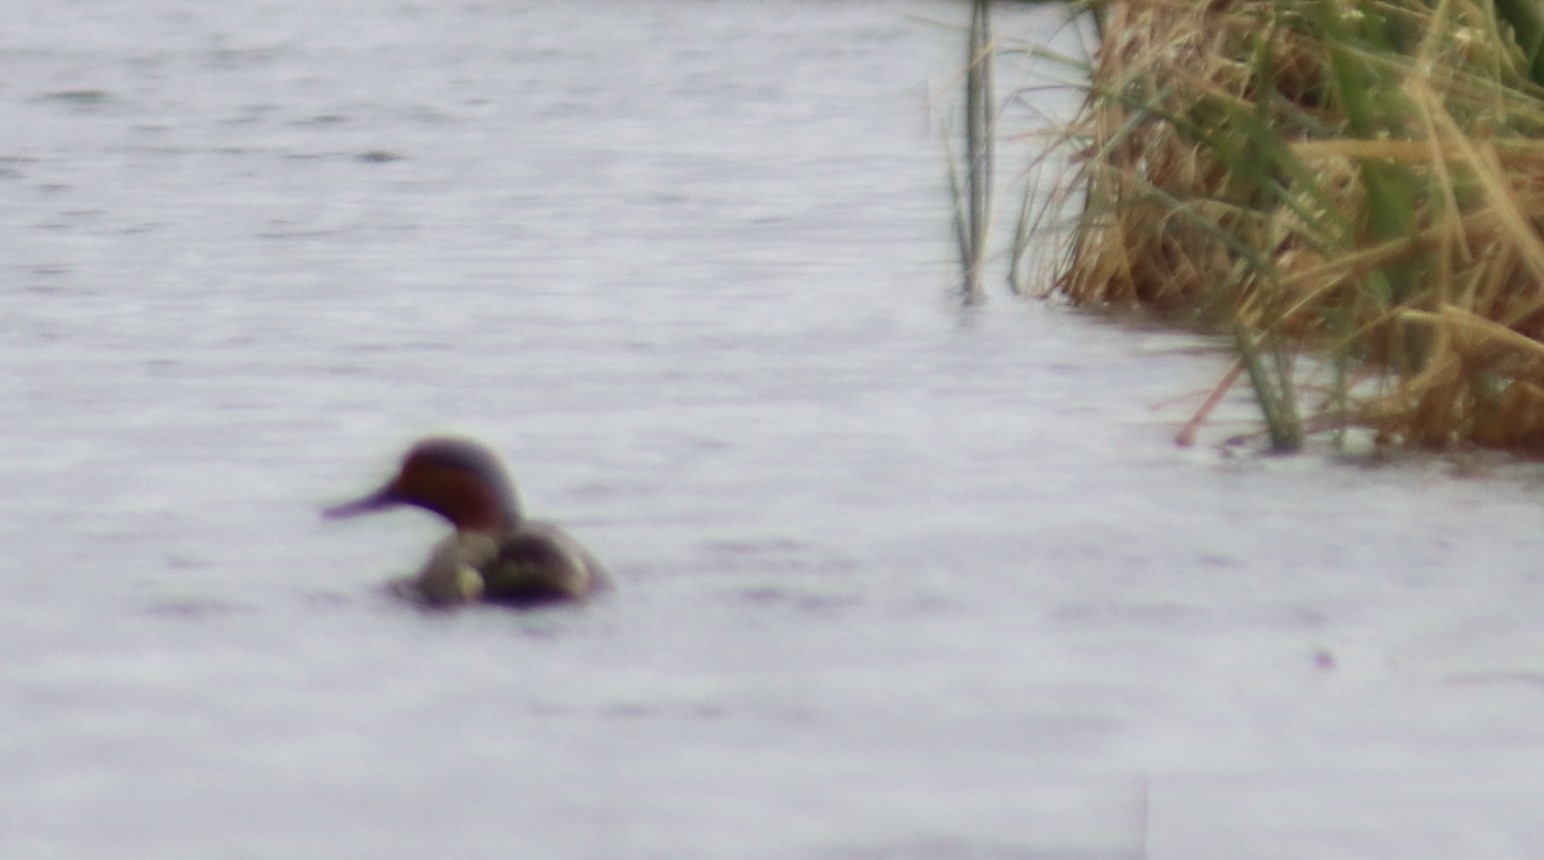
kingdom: Animalia
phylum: Chordata
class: Aves
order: Anseriformes
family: Anatidae
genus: Anas
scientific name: Anas crecca
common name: Eurasian teal
